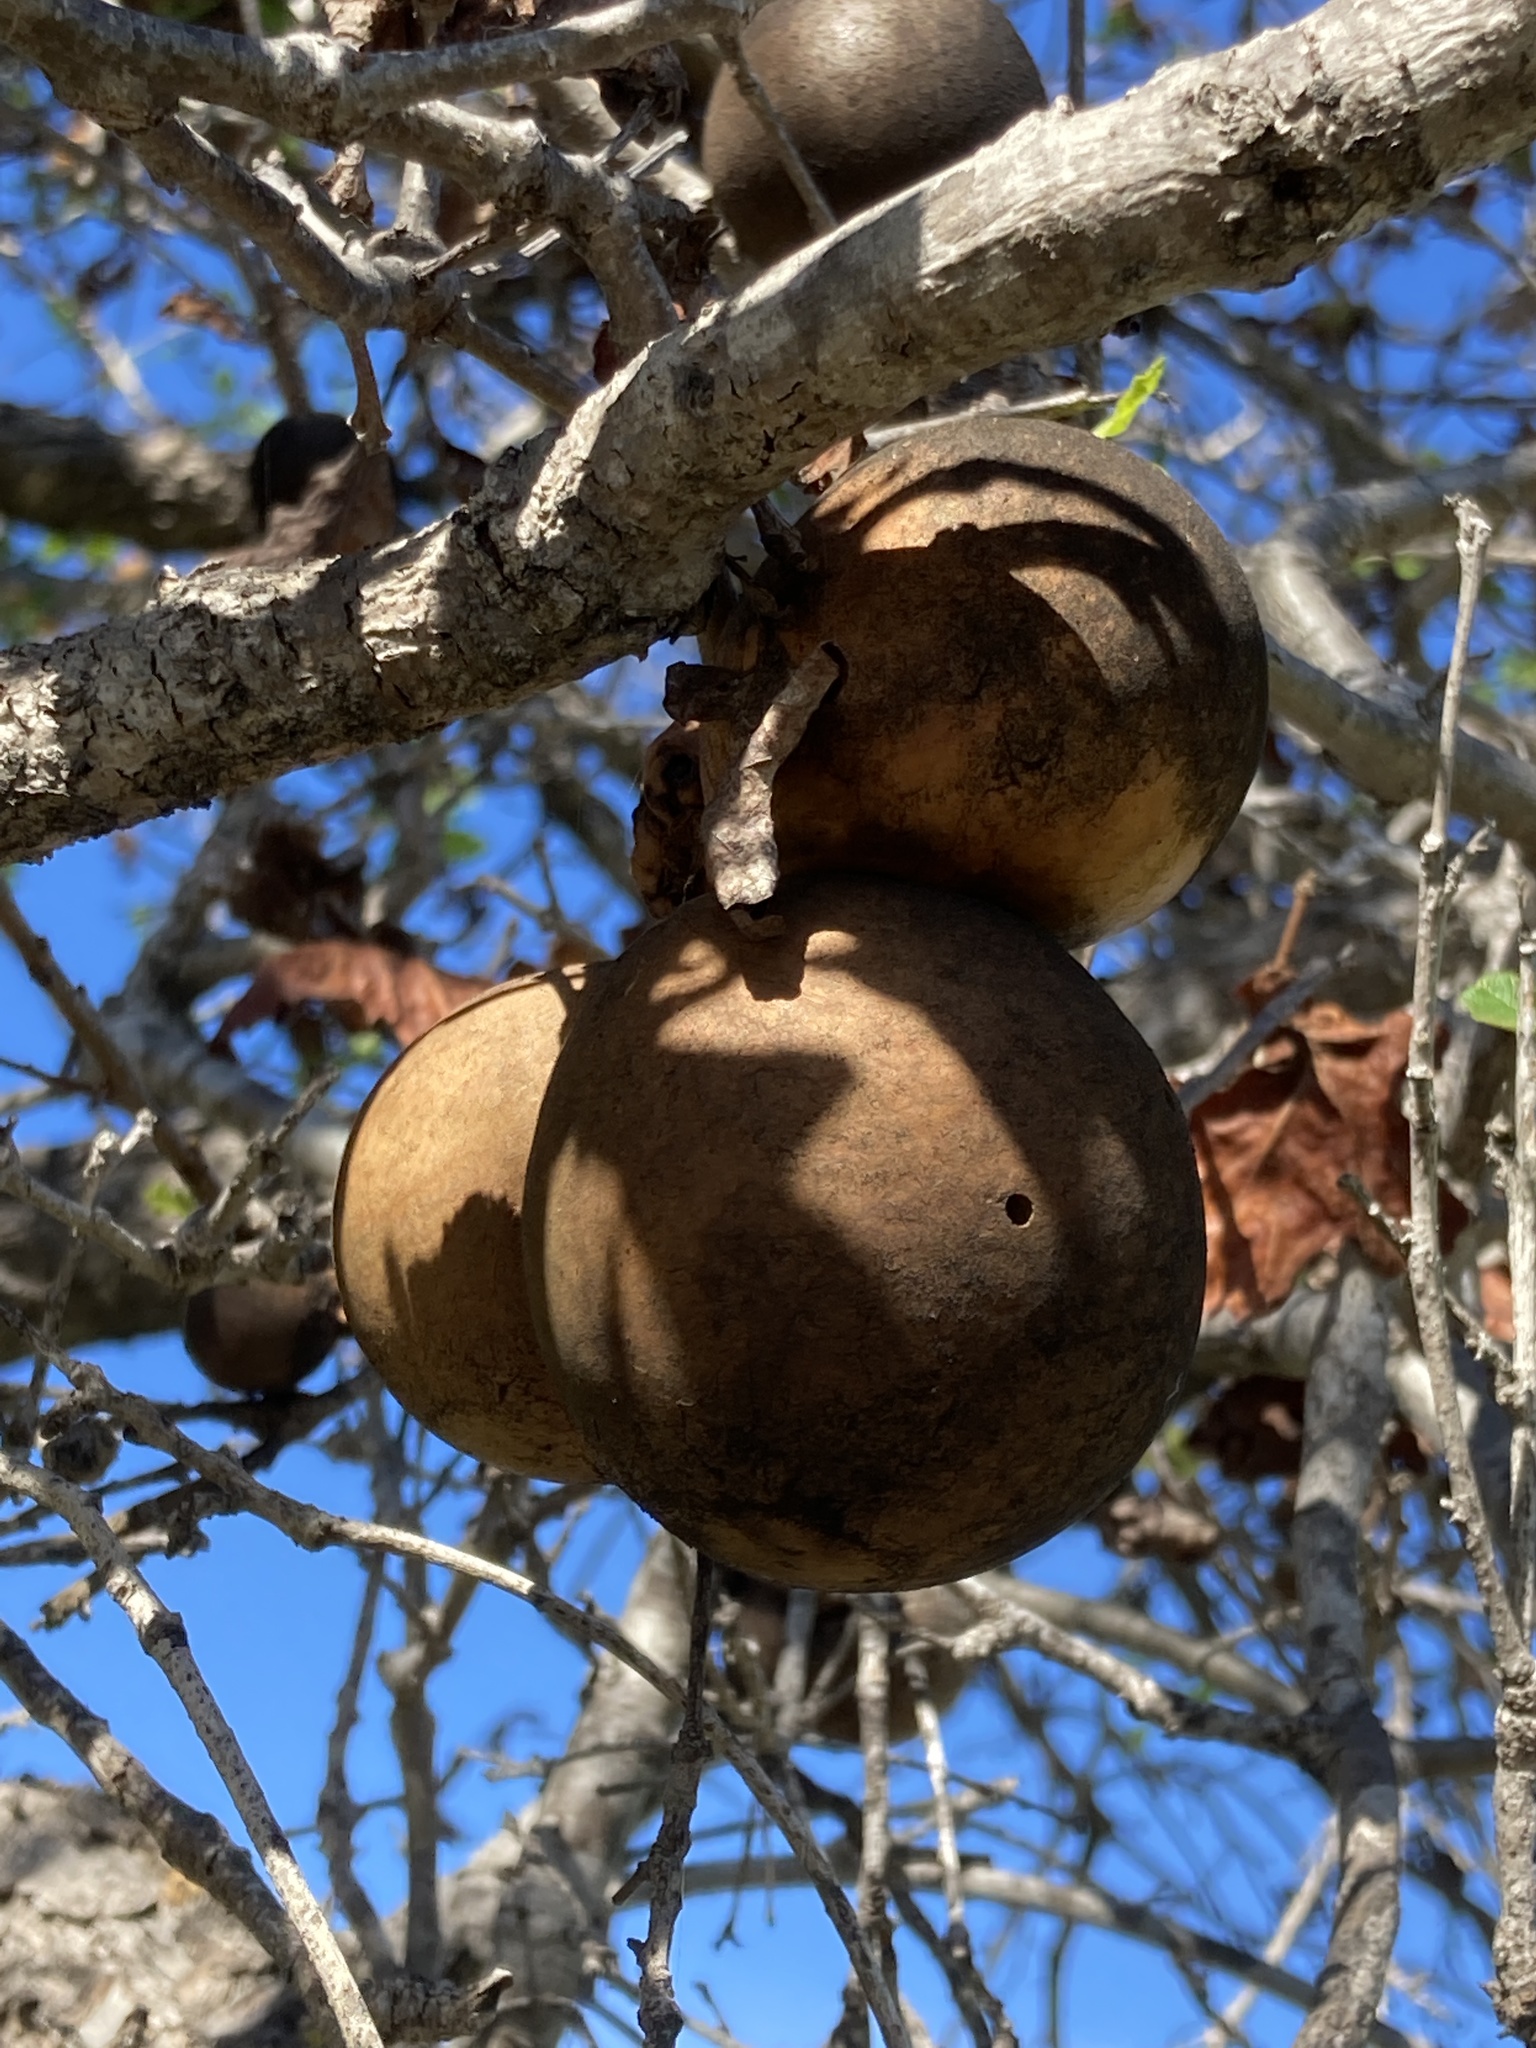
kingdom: Animalia
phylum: Arthropoda
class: Insecta
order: Hymenoptera
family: Cynipidae
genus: Andricus
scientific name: Andricus quercuscalifornicus
